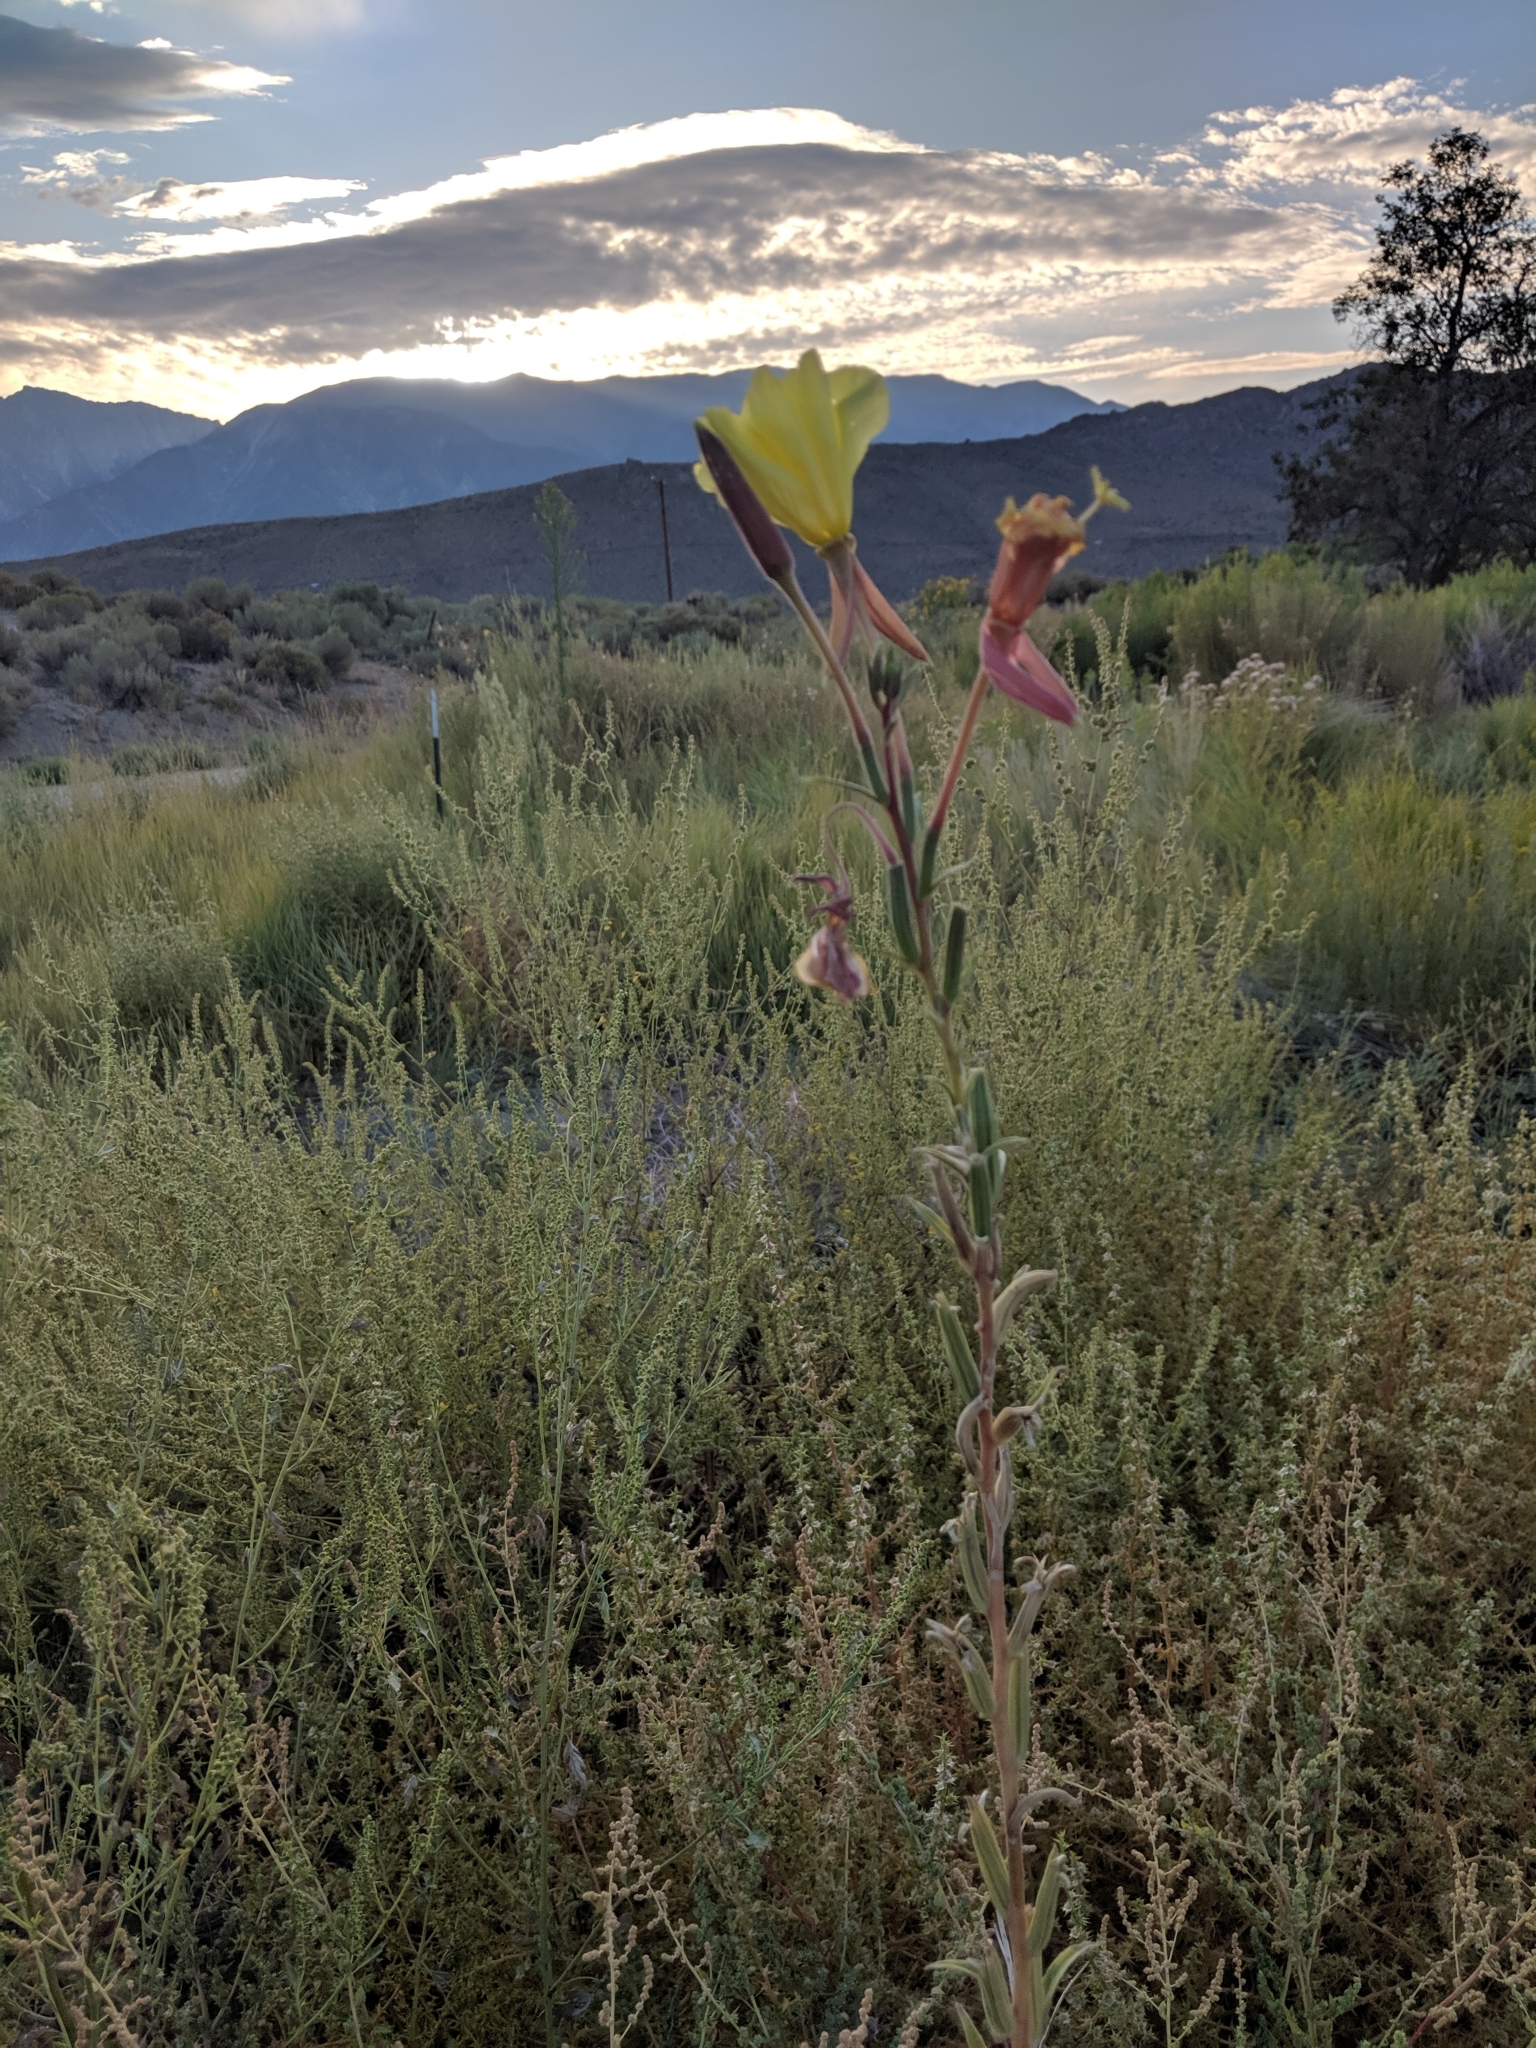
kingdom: Plantae
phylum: Tracheophyta
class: Magnoliopsida
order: Myrtales
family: Onagraceae
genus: Oenothera
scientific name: Oenothera elata
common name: Hooker's evening-primrose
